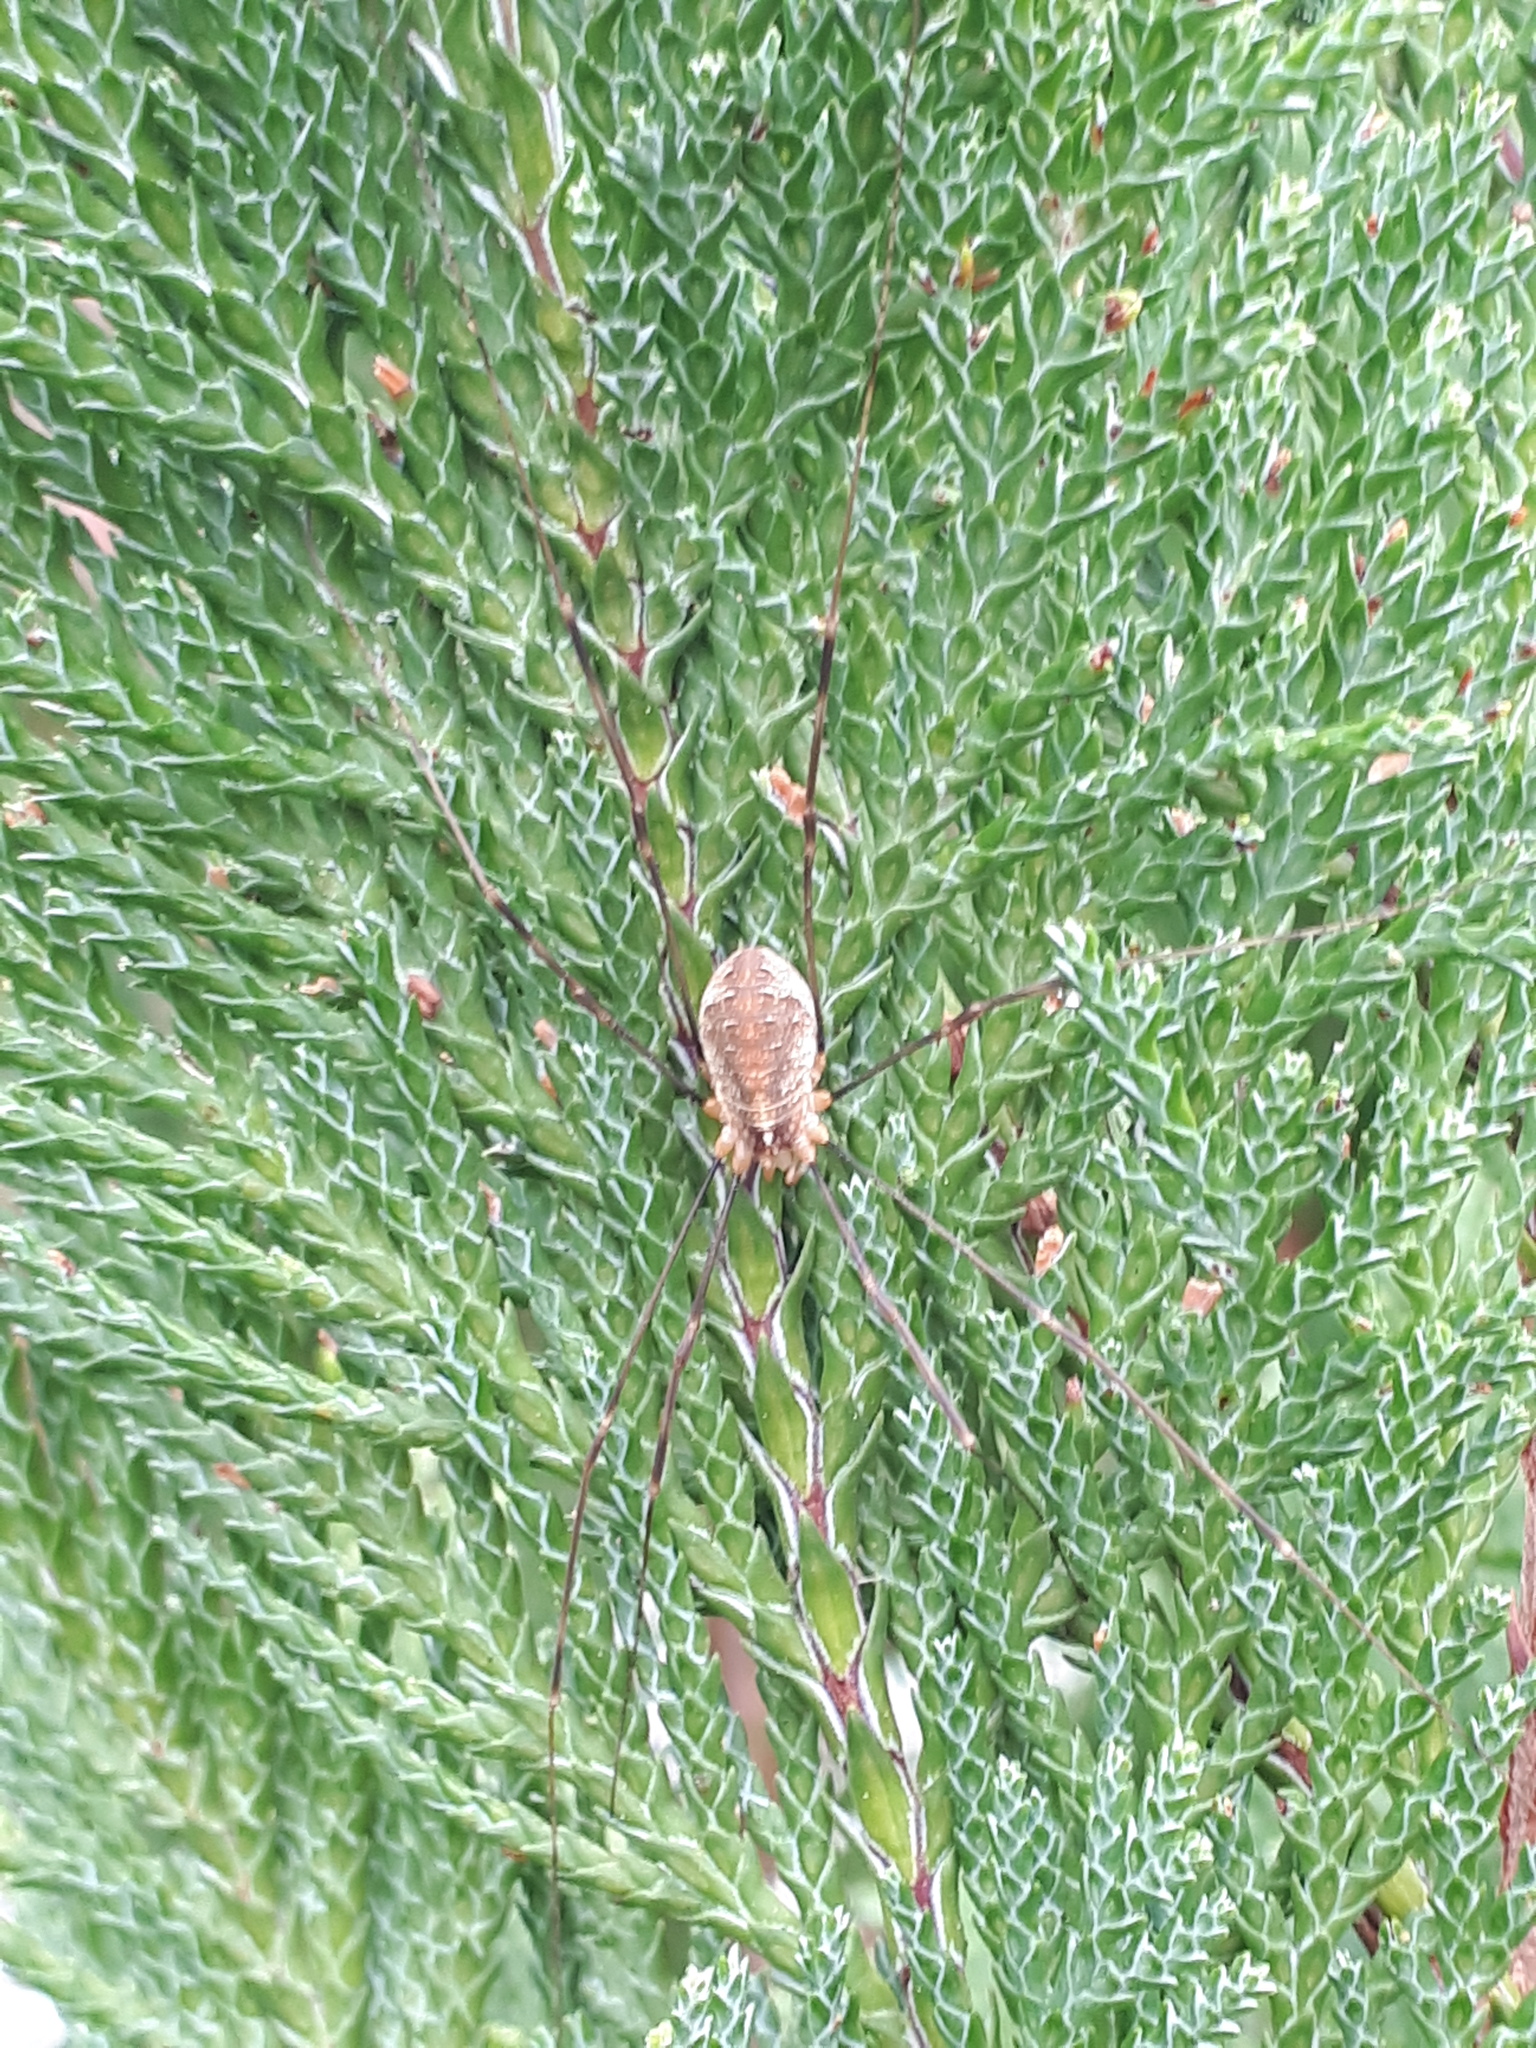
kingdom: Animalia
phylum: Arthropoda
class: Arachnida
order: Opiliones
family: Phalangiidae
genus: Opilio
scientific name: Opilio canestrinii
